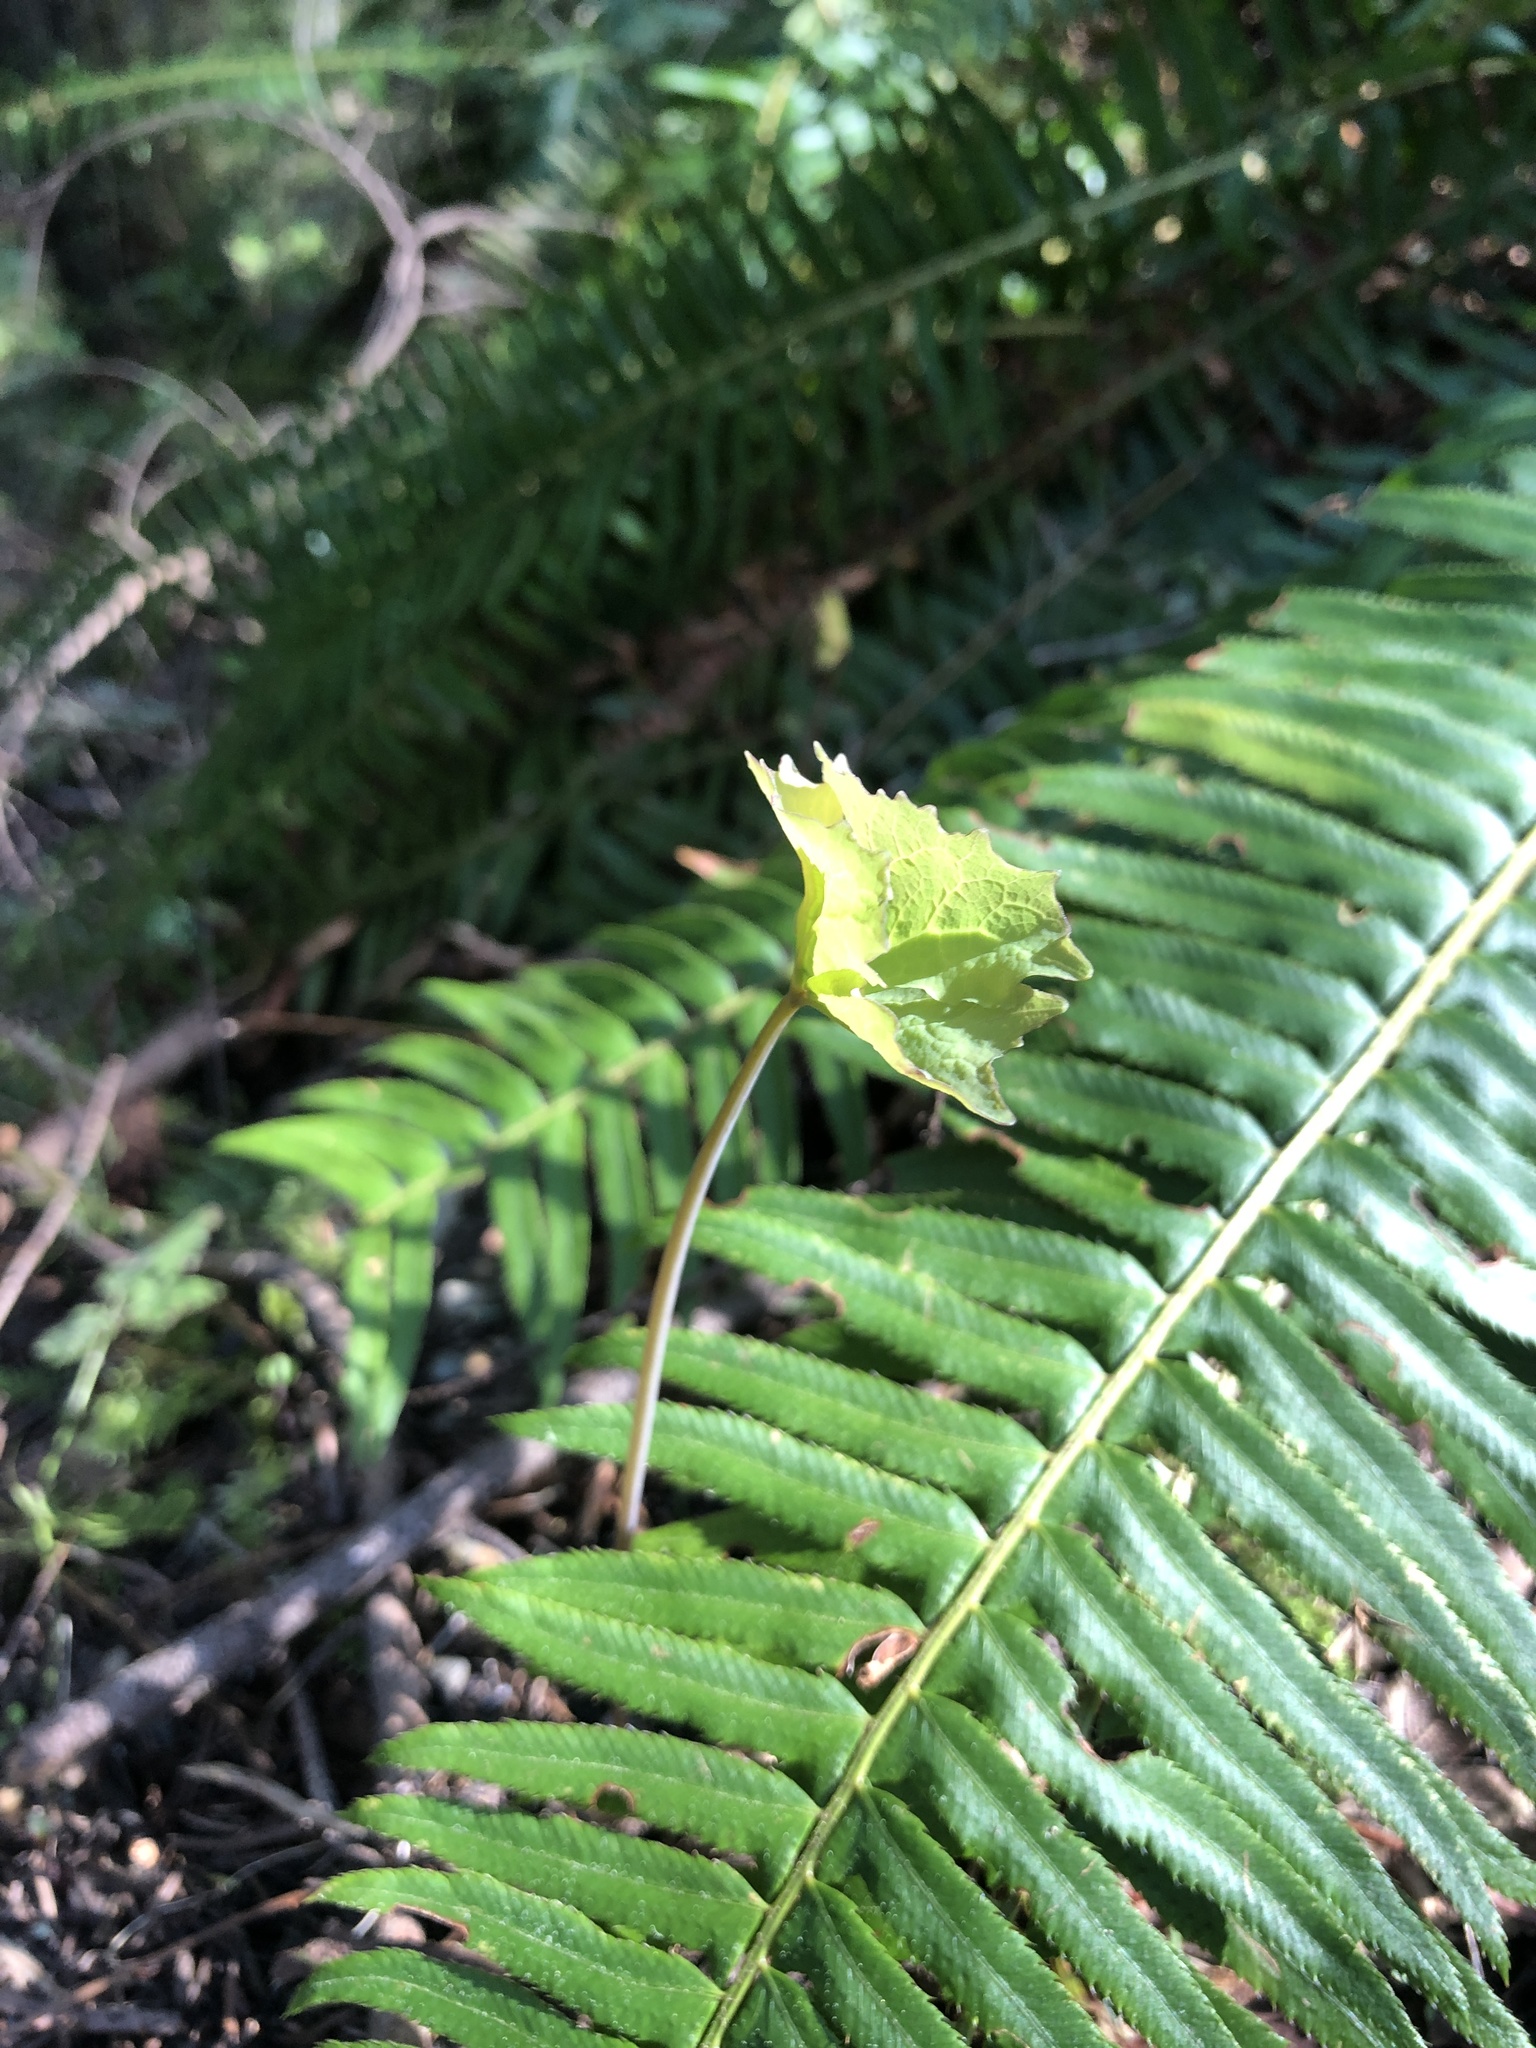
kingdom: Plantae
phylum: Tracheophyta
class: Magnoliopsida
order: Ranunculales
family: Berberidaceae
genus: Achlys
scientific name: Achlys triphylla
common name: Vanilla-leaf
